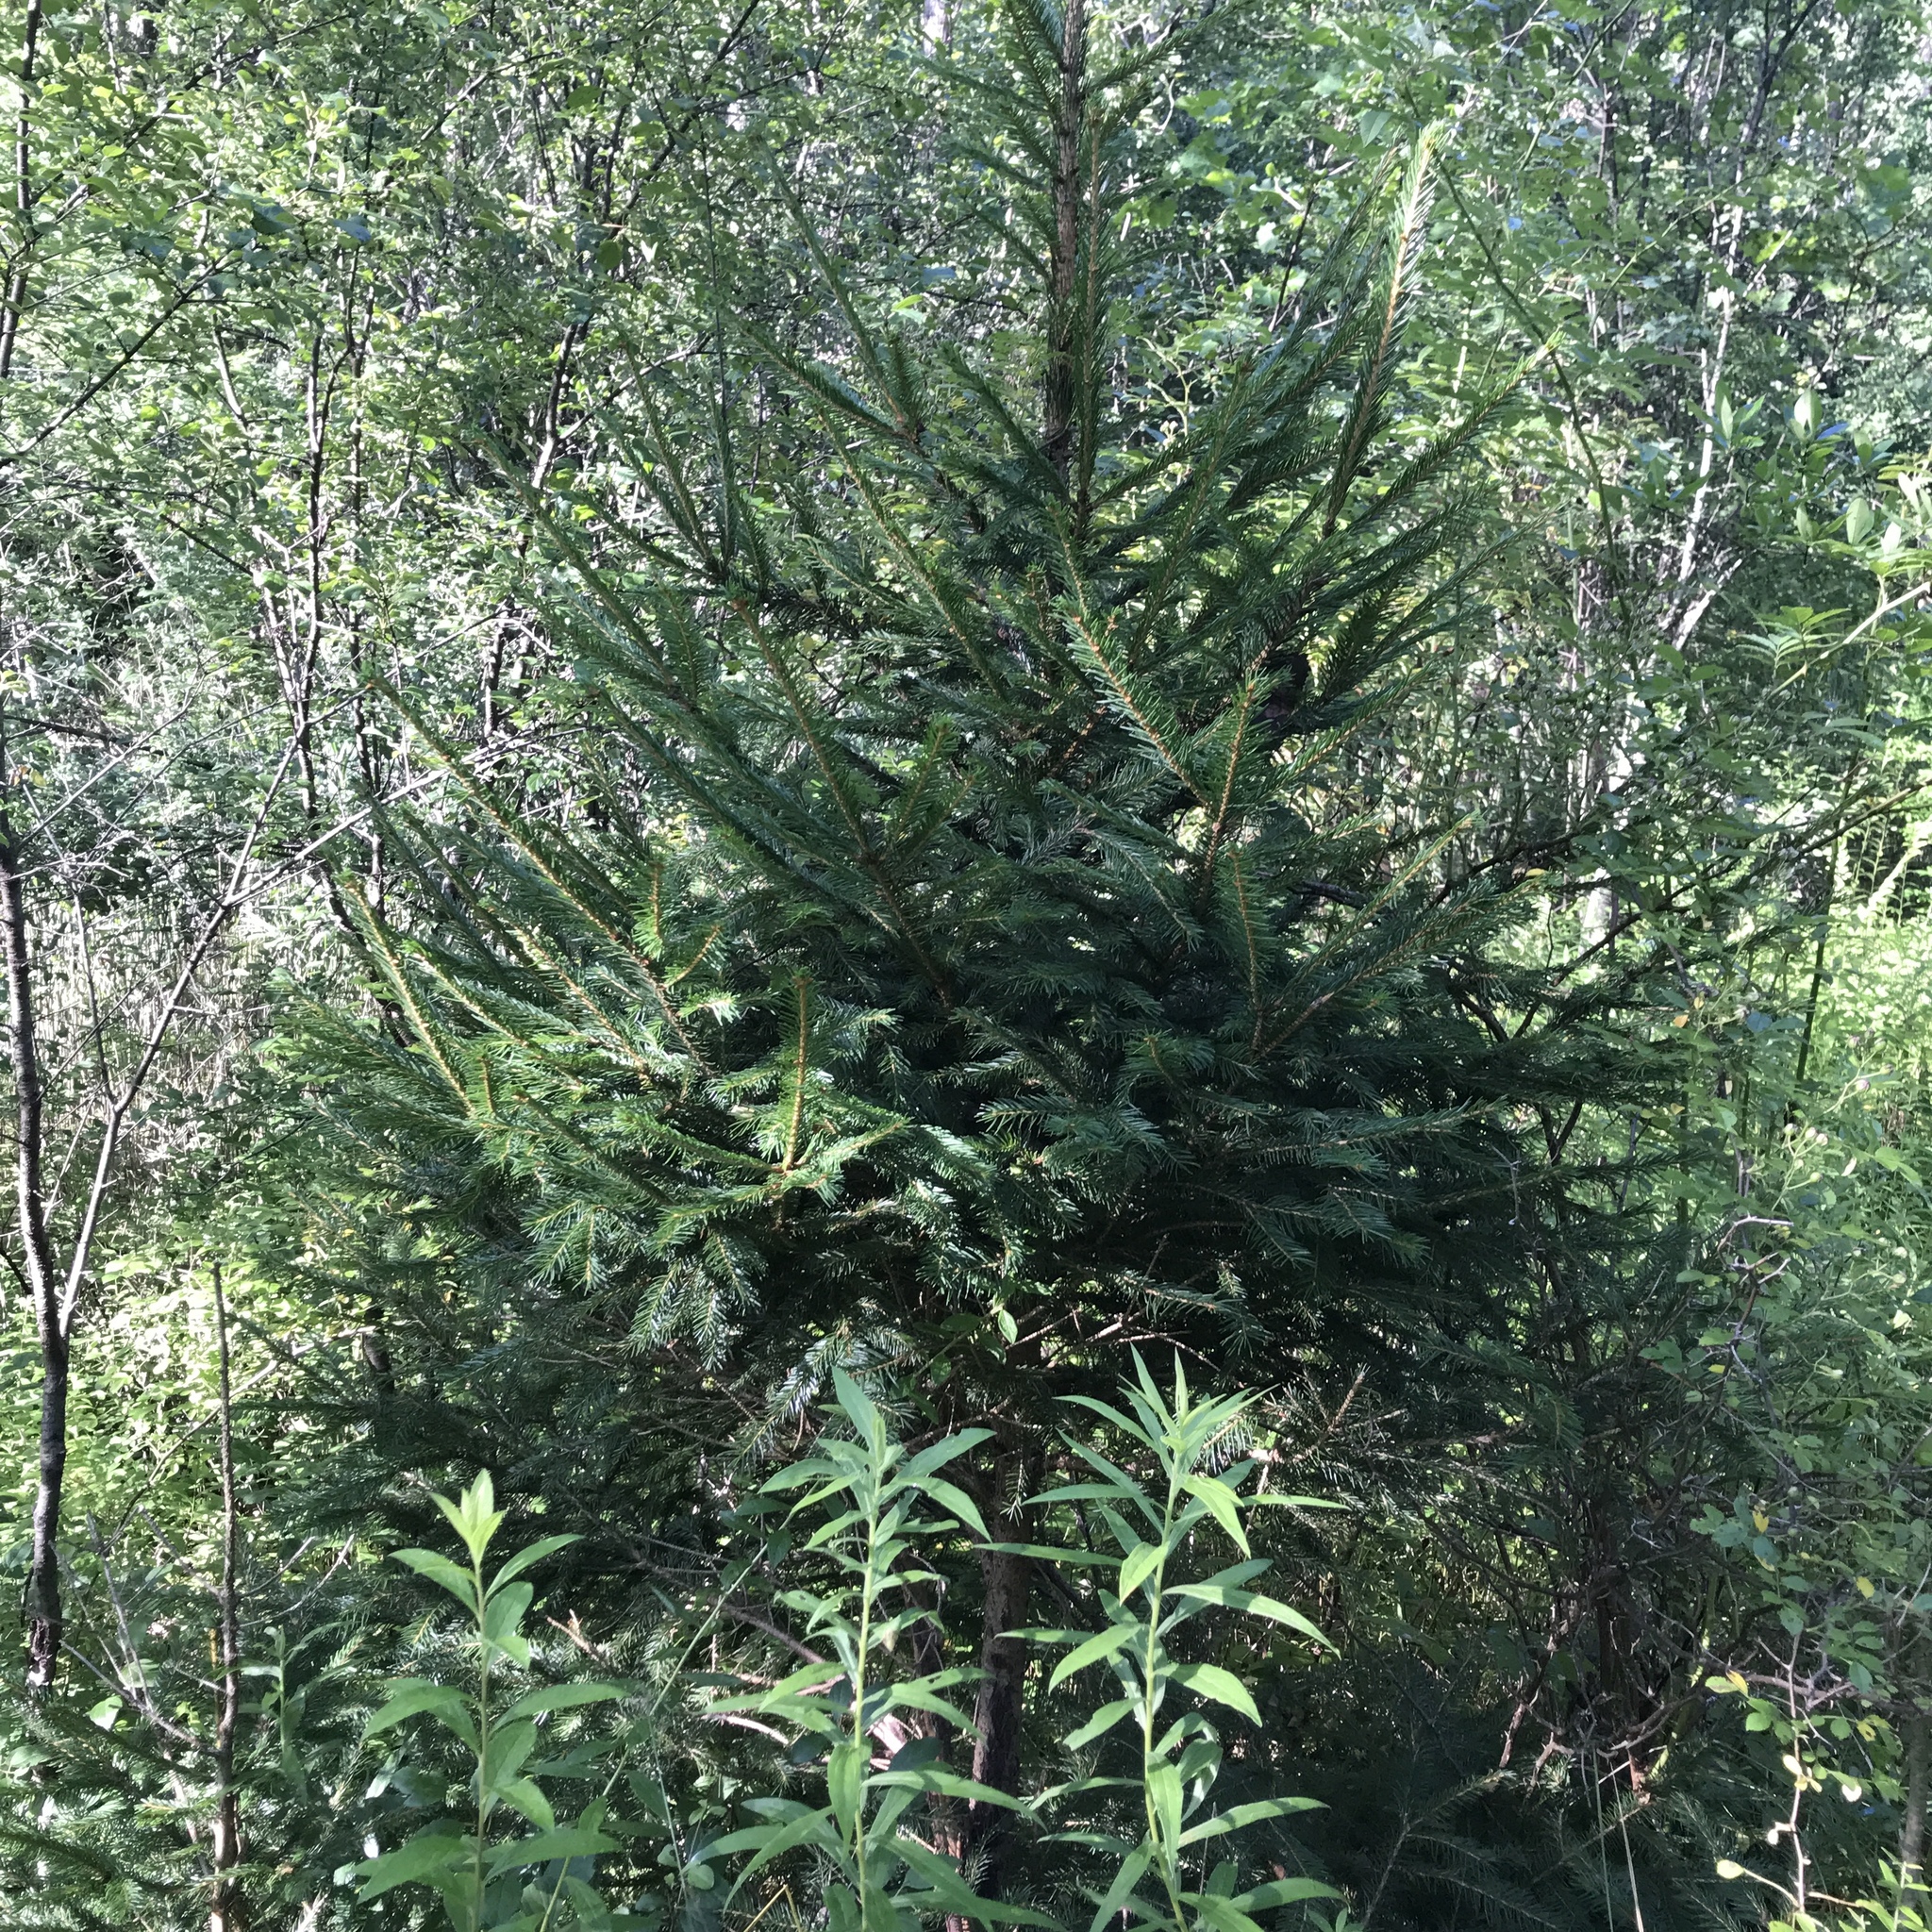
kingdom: Plantae
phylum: Tracheophyta
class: Pinopsida
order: Pinales
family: Pinaceae
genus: Picea
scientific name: Picea abies
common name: Norway spruce
